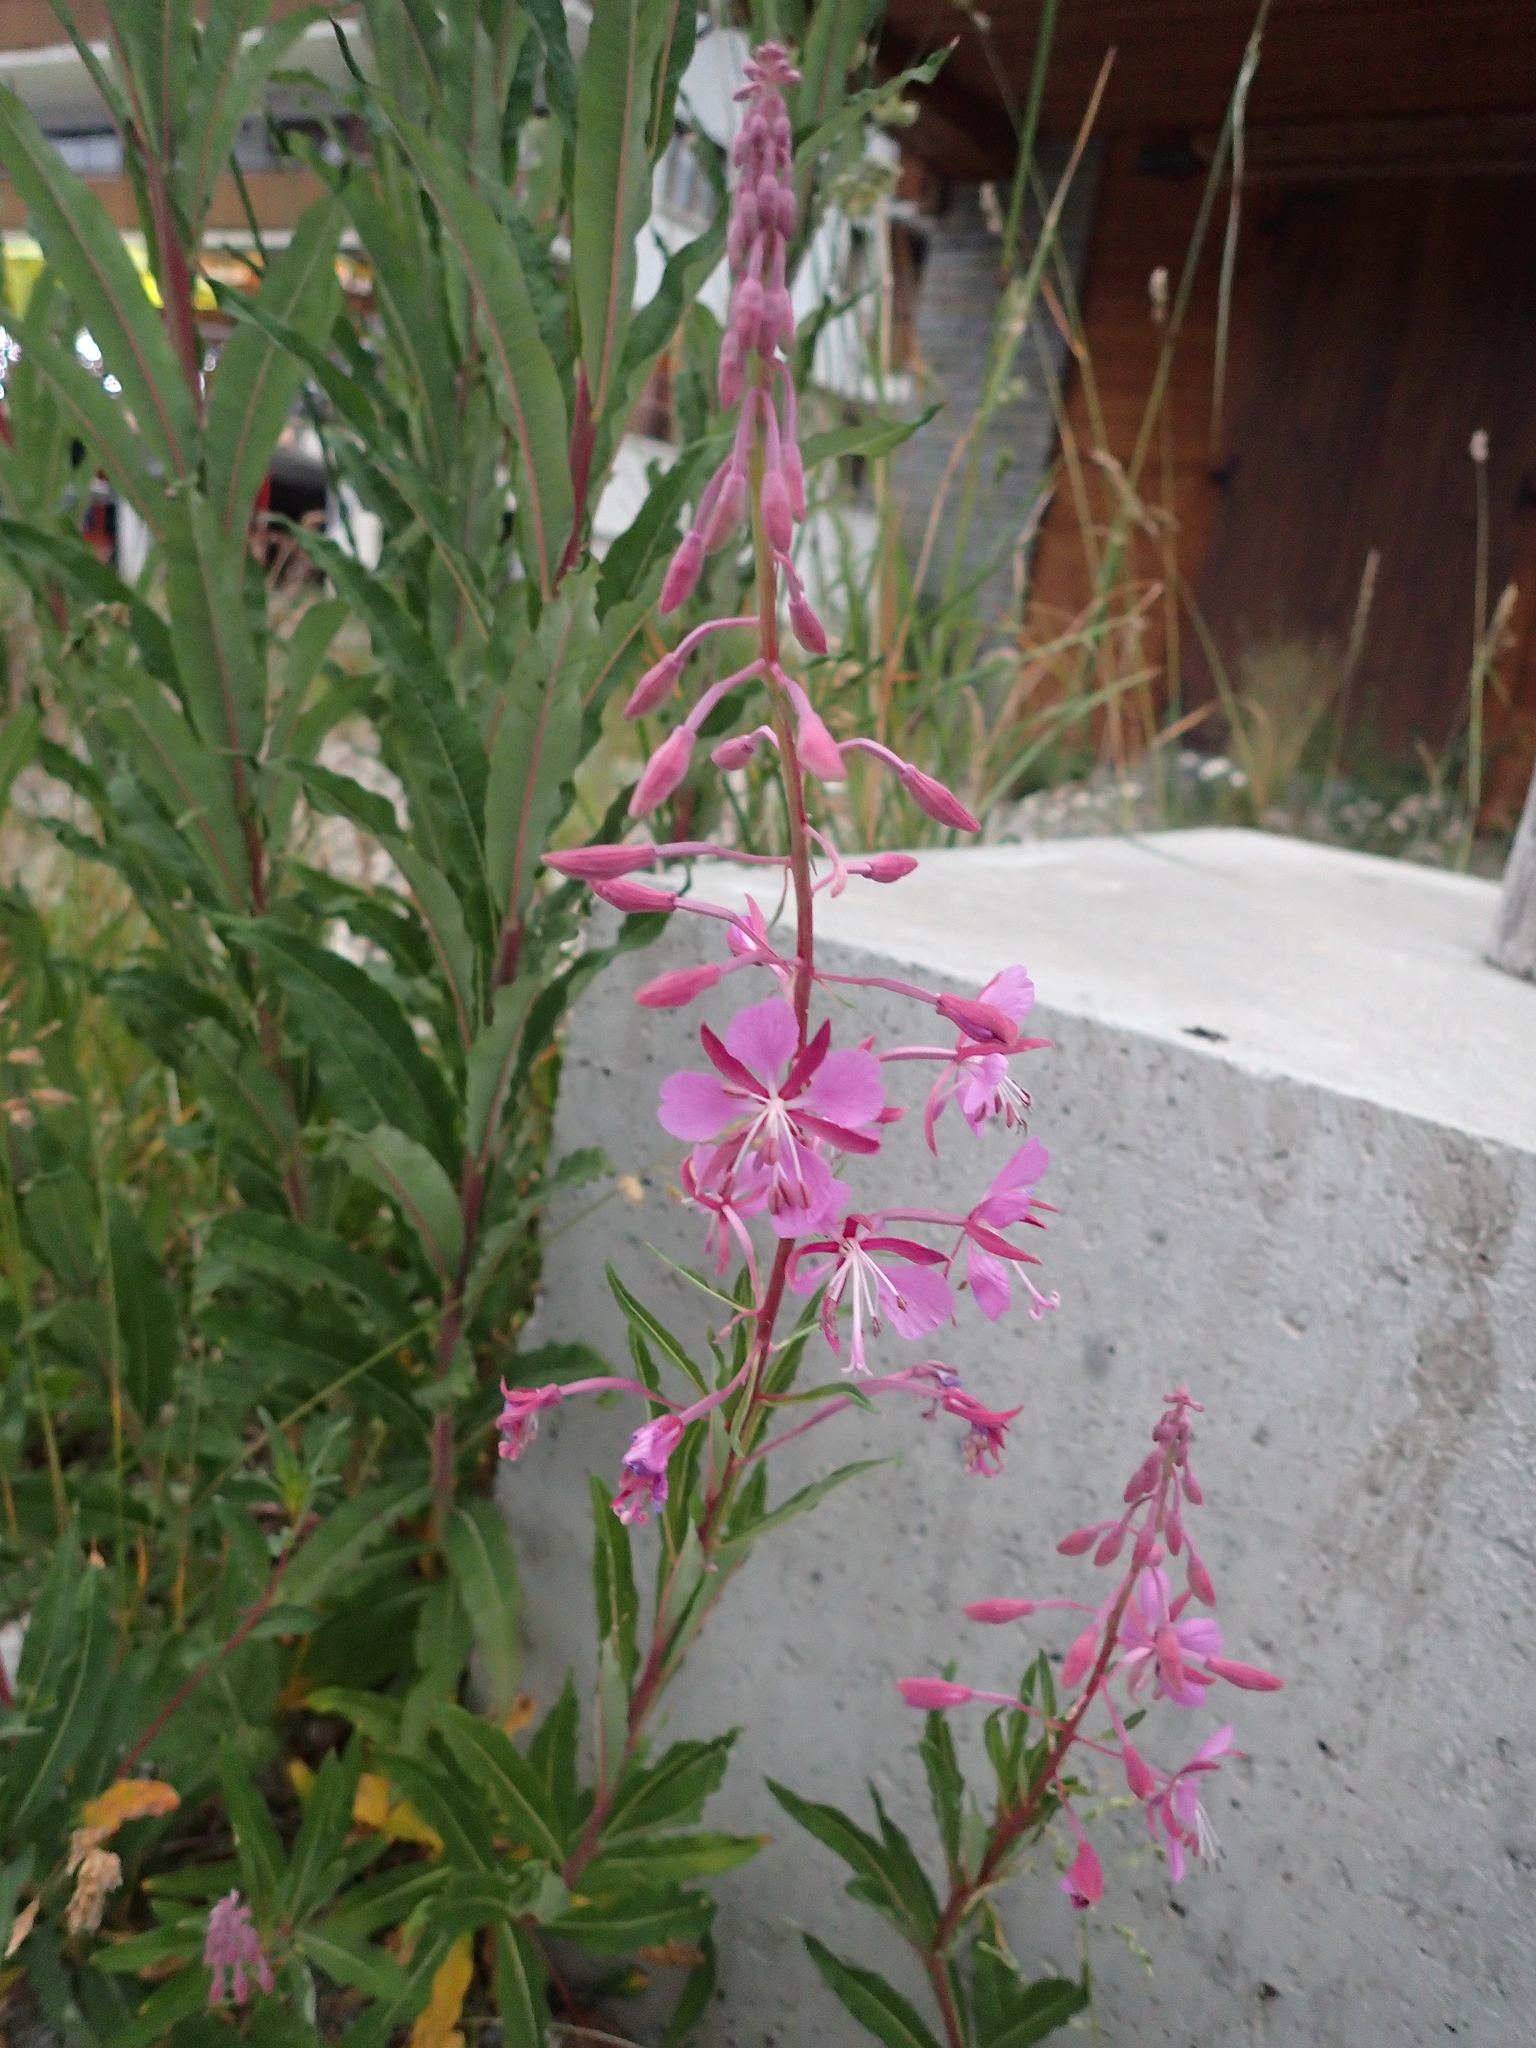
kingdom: Plantae
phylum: Tracheophyta
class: Magnoliopsida
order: Myrtales
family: Onagraceae
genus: Chamaenerion
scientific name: Chamaenerion angustifolium
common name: Fireweed
